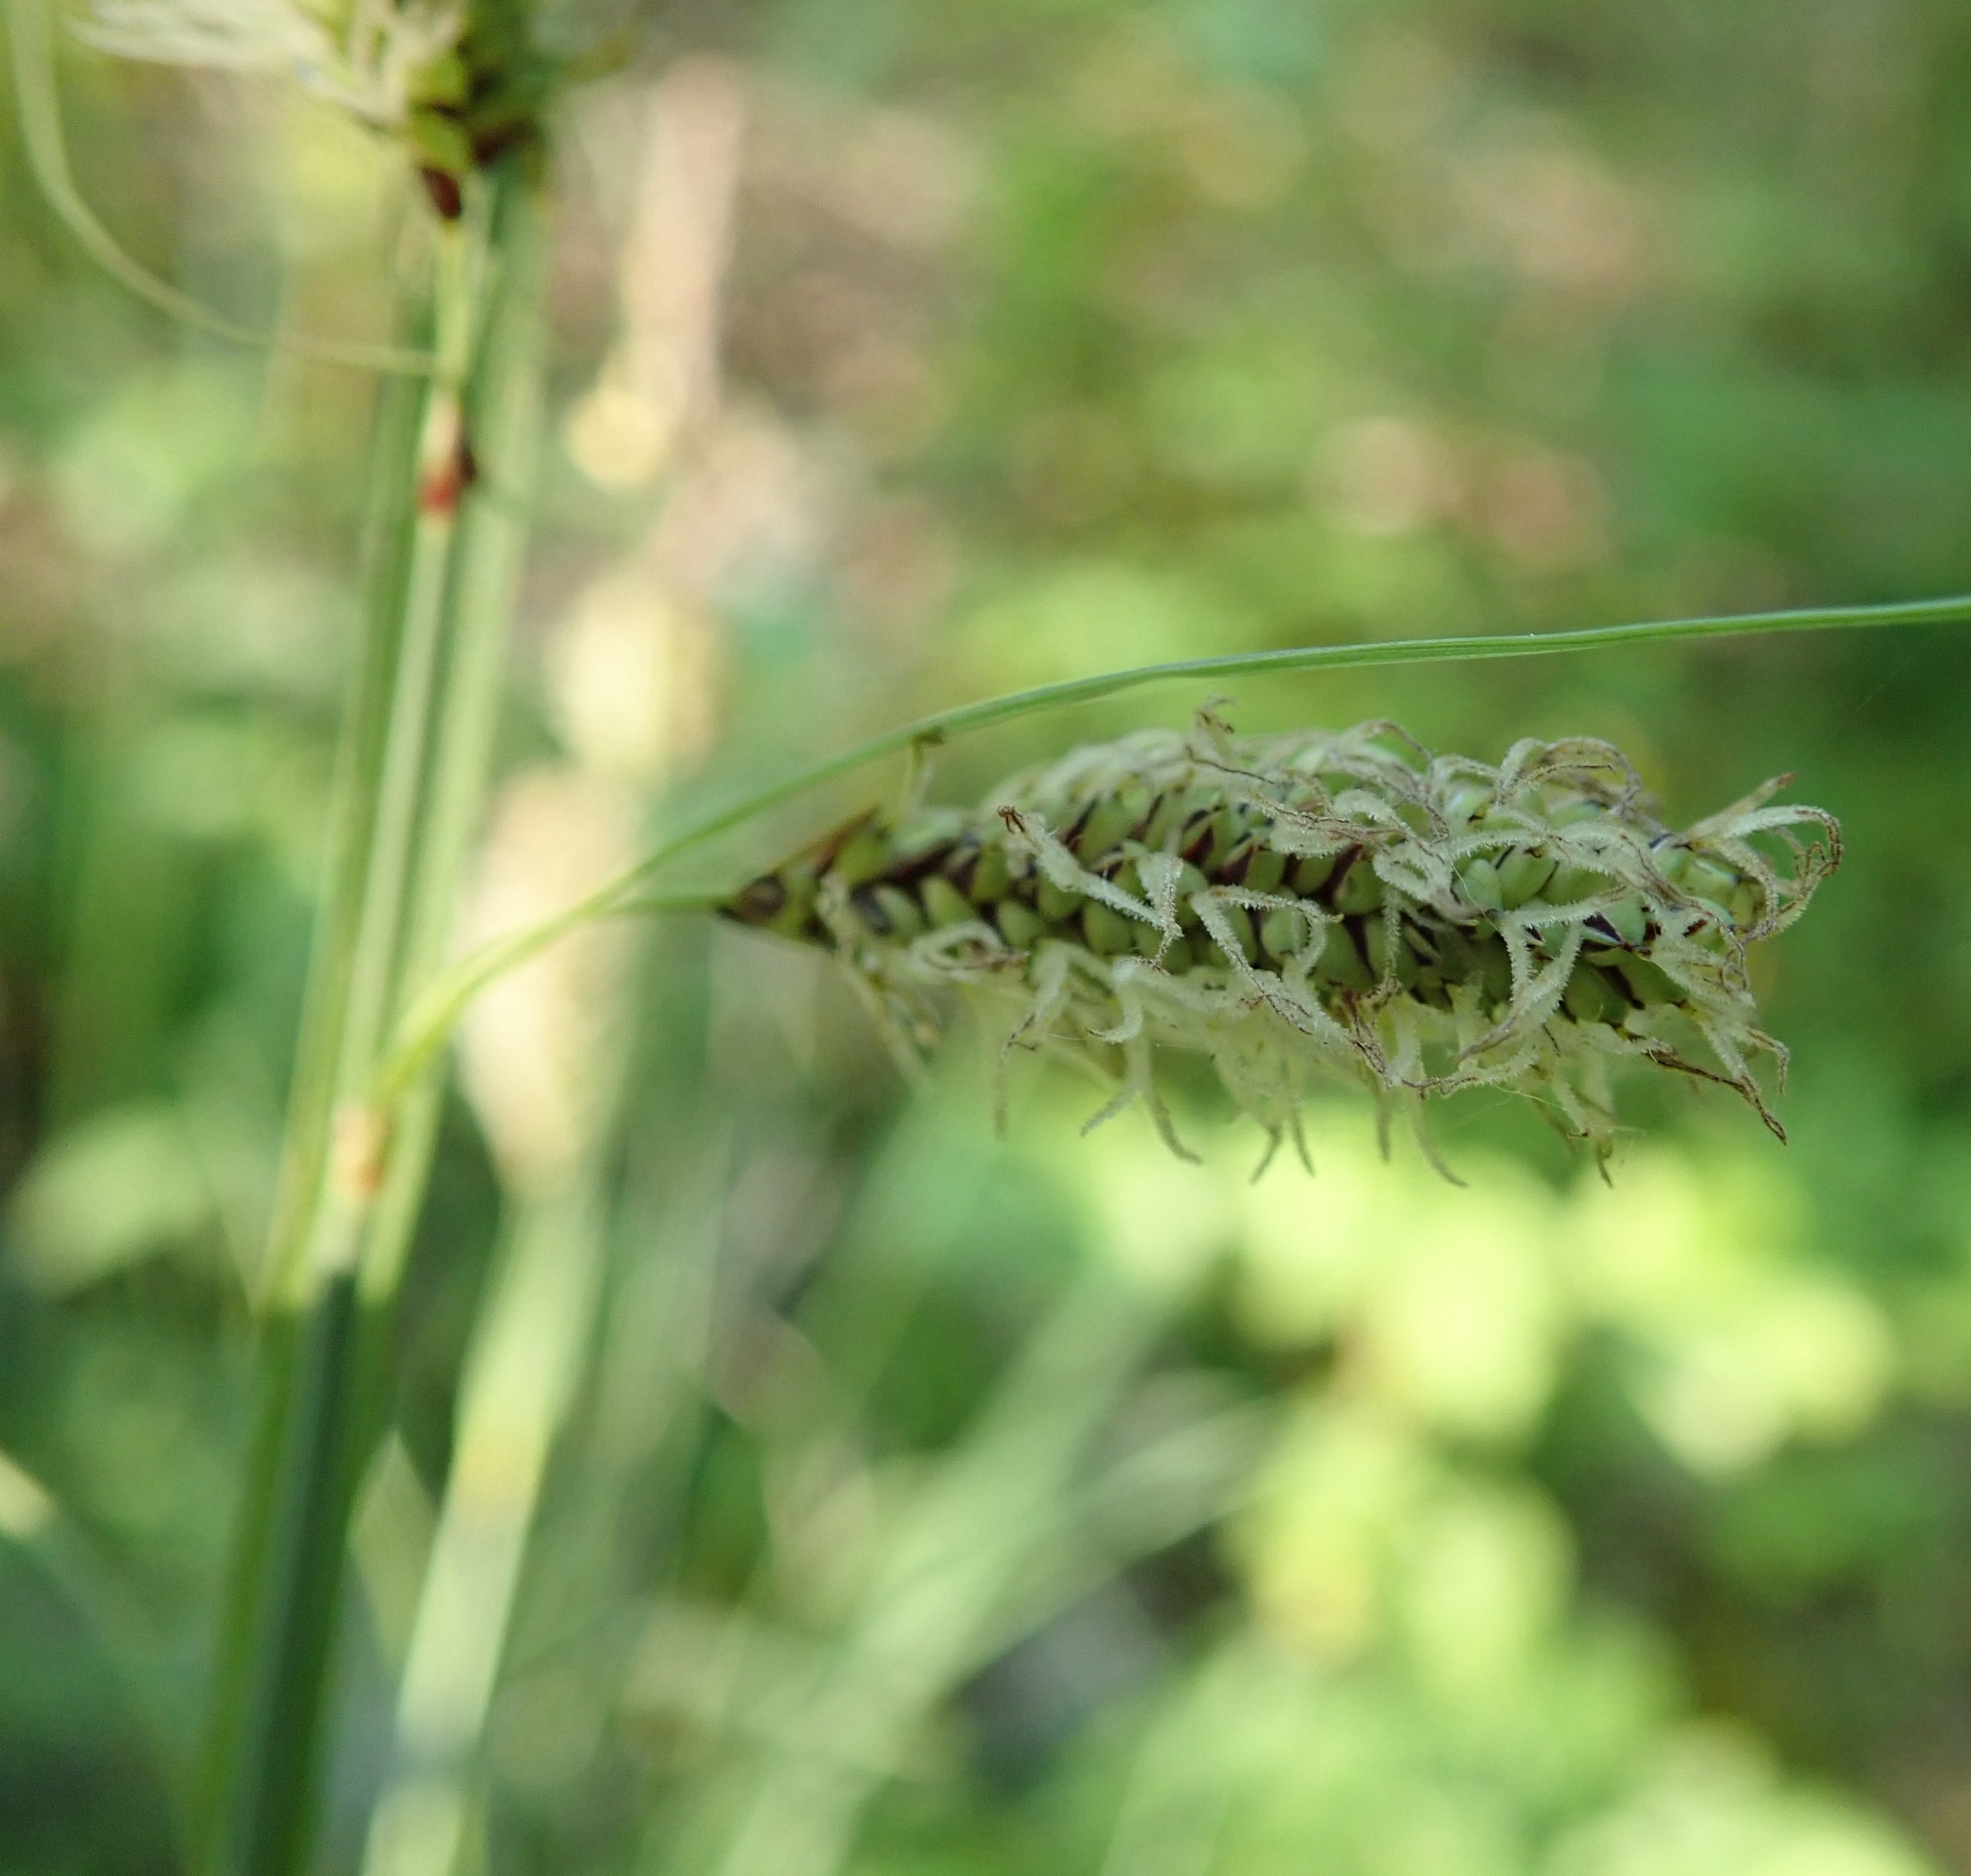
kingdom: Plantae
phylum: Tracheophyta
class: Liliopsida
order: Poales
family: Cyperaceae
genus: Carex
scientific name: Carex flacca
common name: Glaucous sedge
